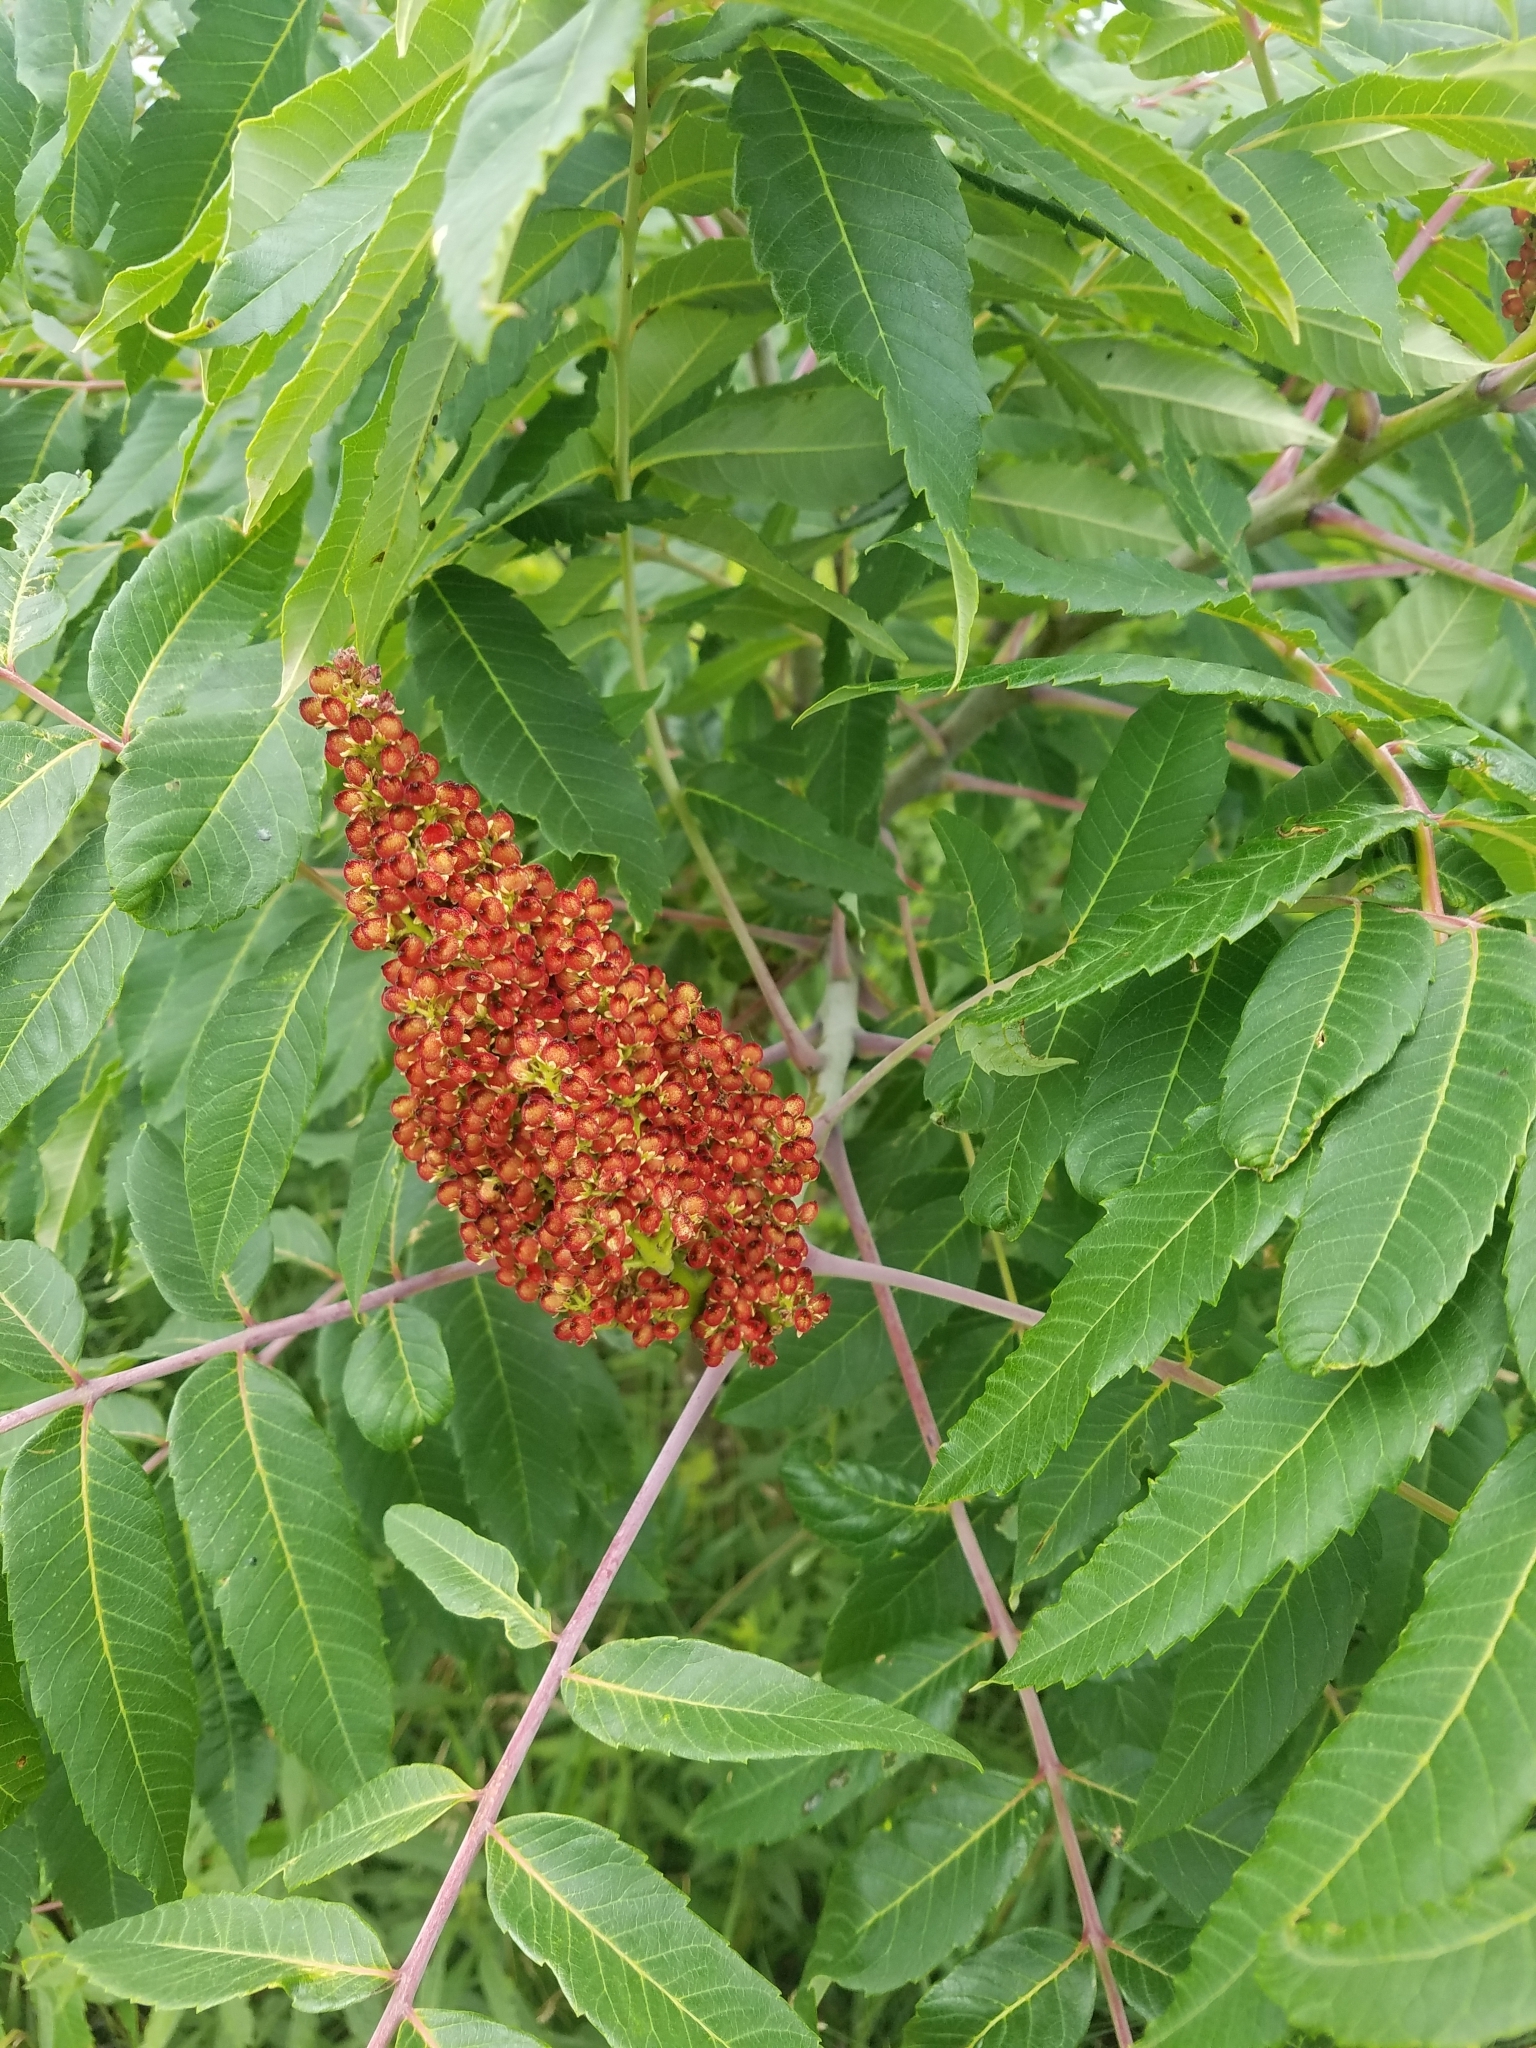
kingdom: Plantae
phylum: Tracheophyta
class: Magnoliopsida
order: Sapindales
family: Anacardiaceae
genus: Rhus
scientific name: Rhus glabra
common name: Scarlet sumac
